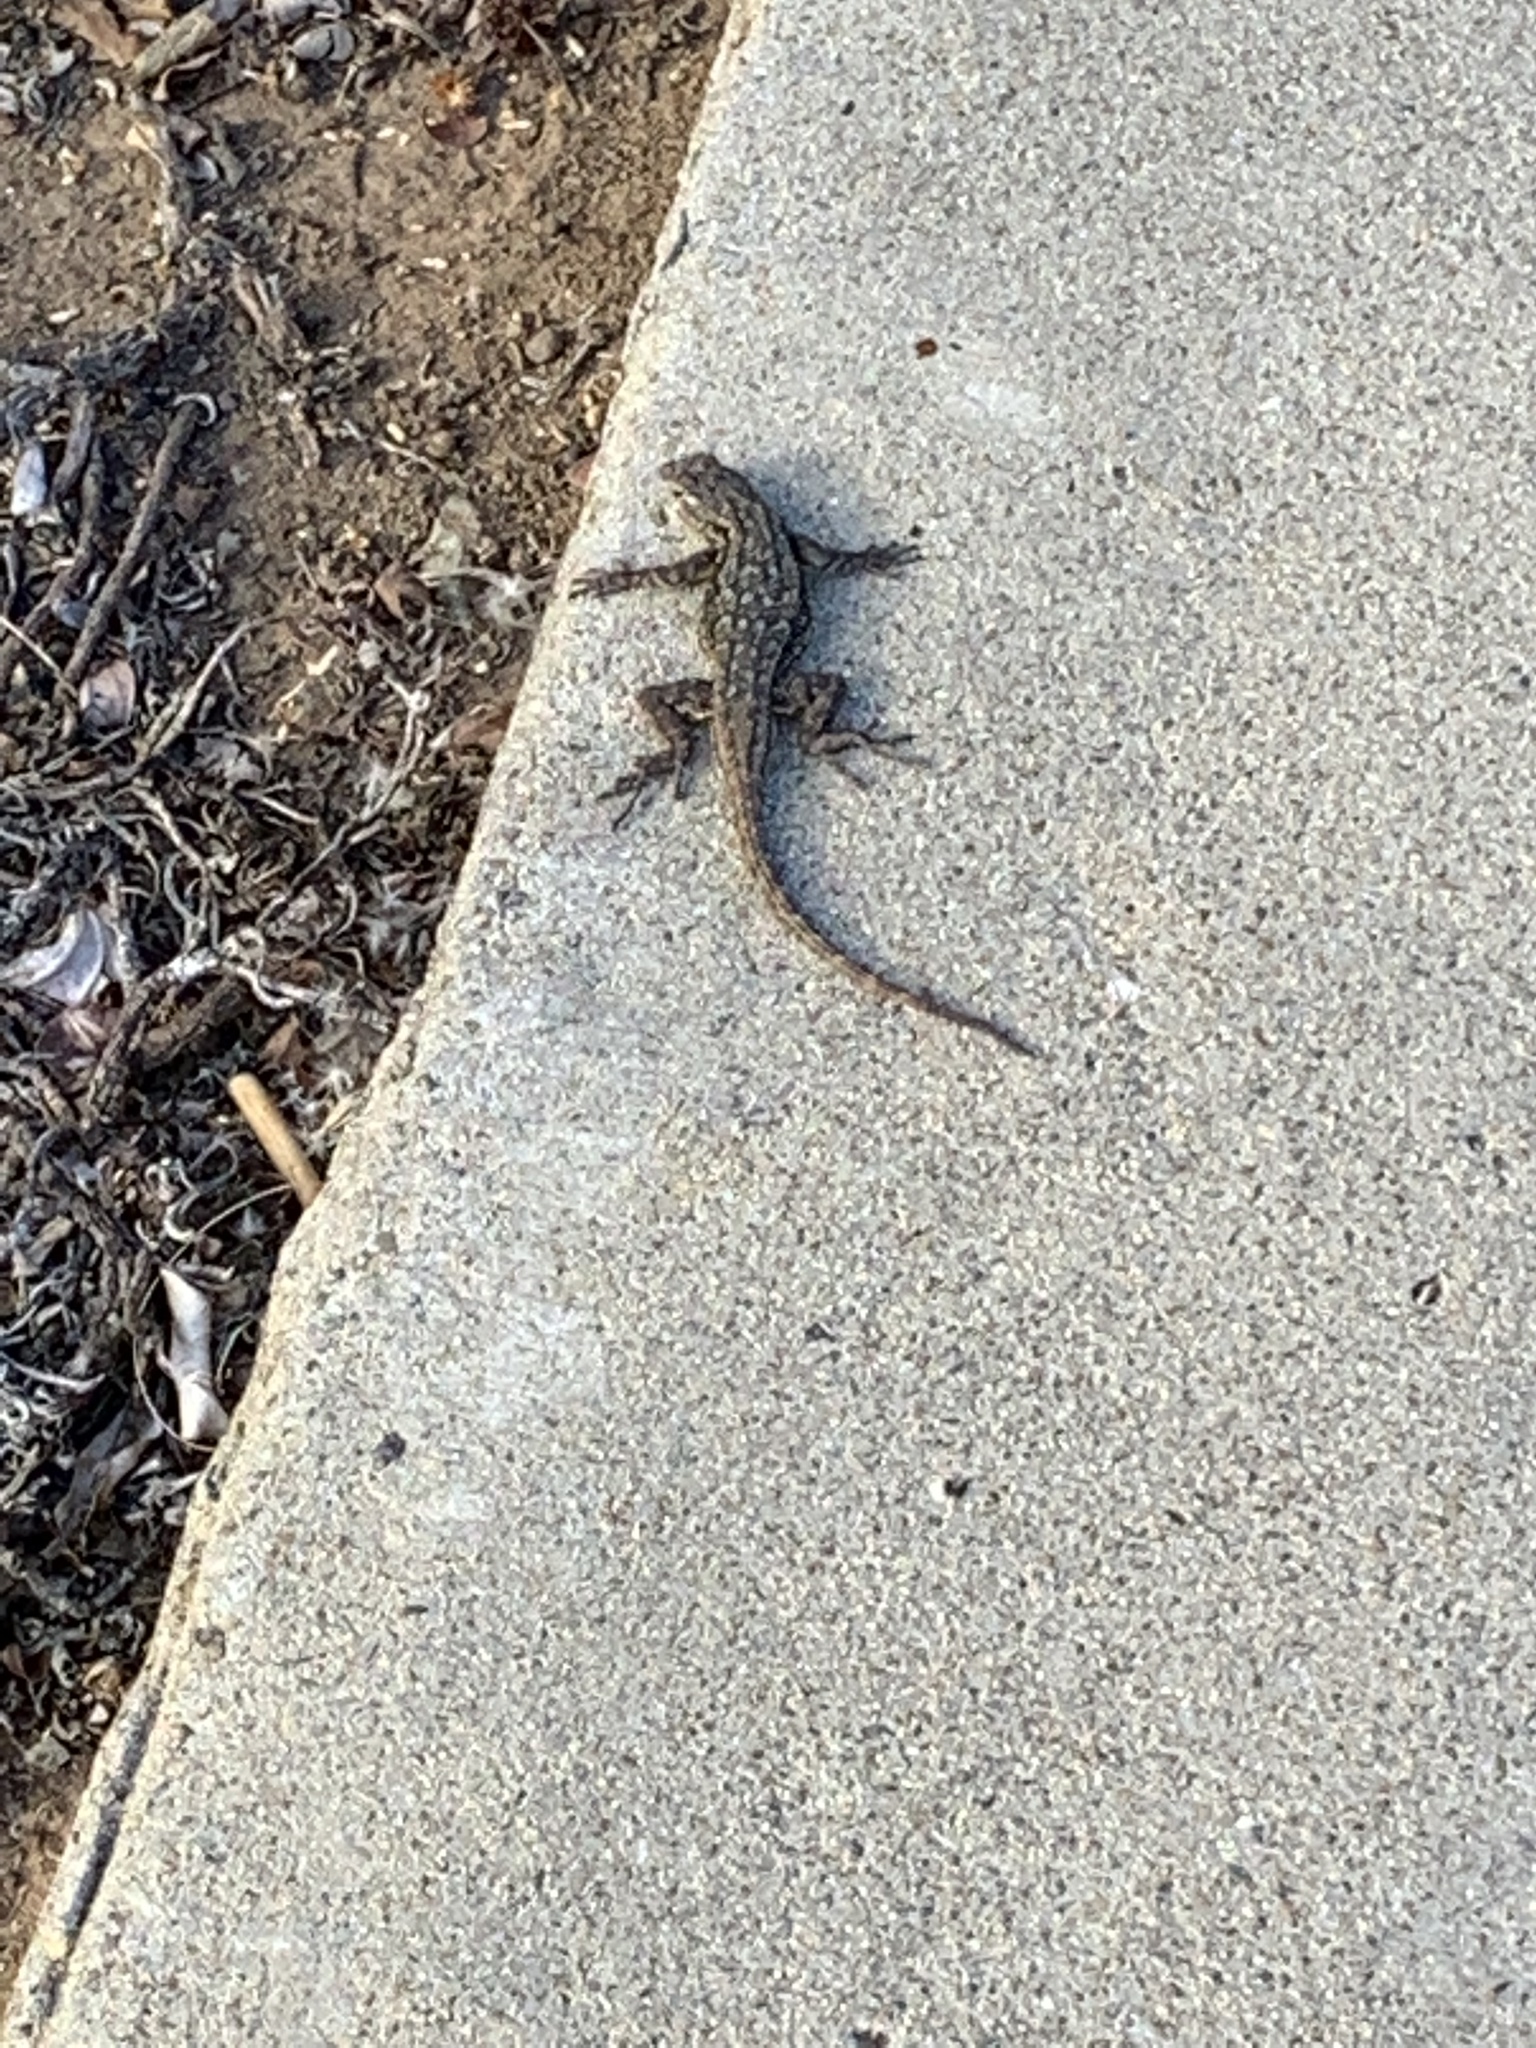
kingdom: Animalia
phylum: Chordata
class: Squamata
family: Phrynosomatidae
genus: Sceloporus
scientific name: Sceloporus occidentalis
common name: Western fence lizard
